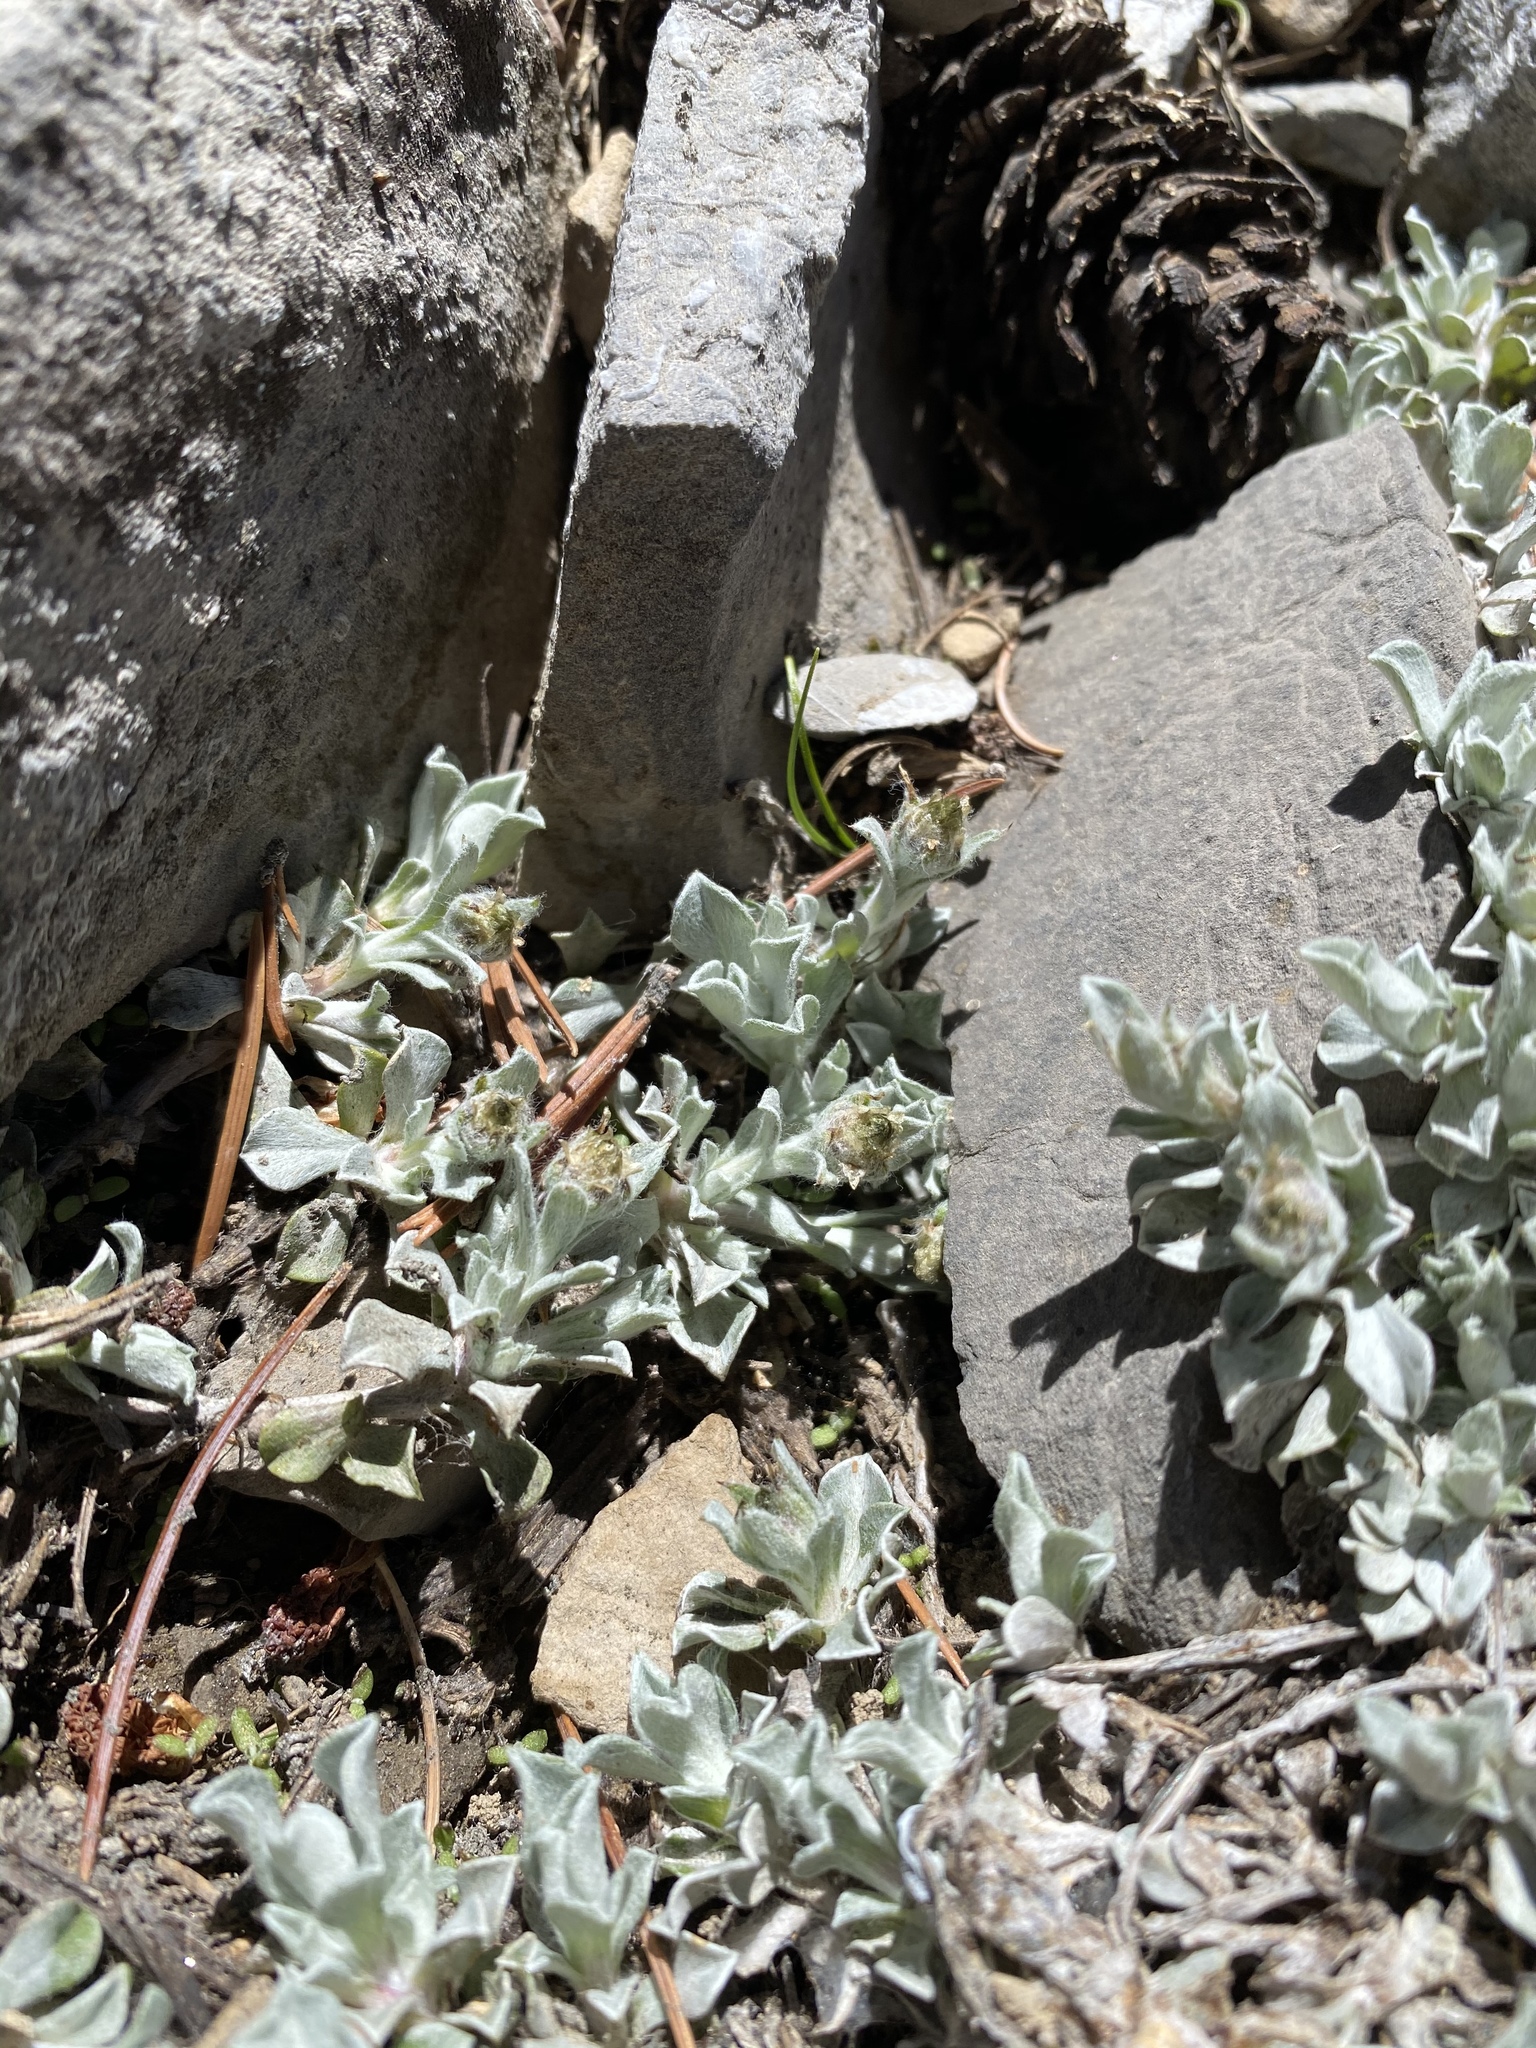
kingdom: Plantae
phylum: Tracheophyta
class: Magnoliopsida
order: Asterales
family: Asteraceae
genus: Antennaria
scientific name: Antennaria soliceps
